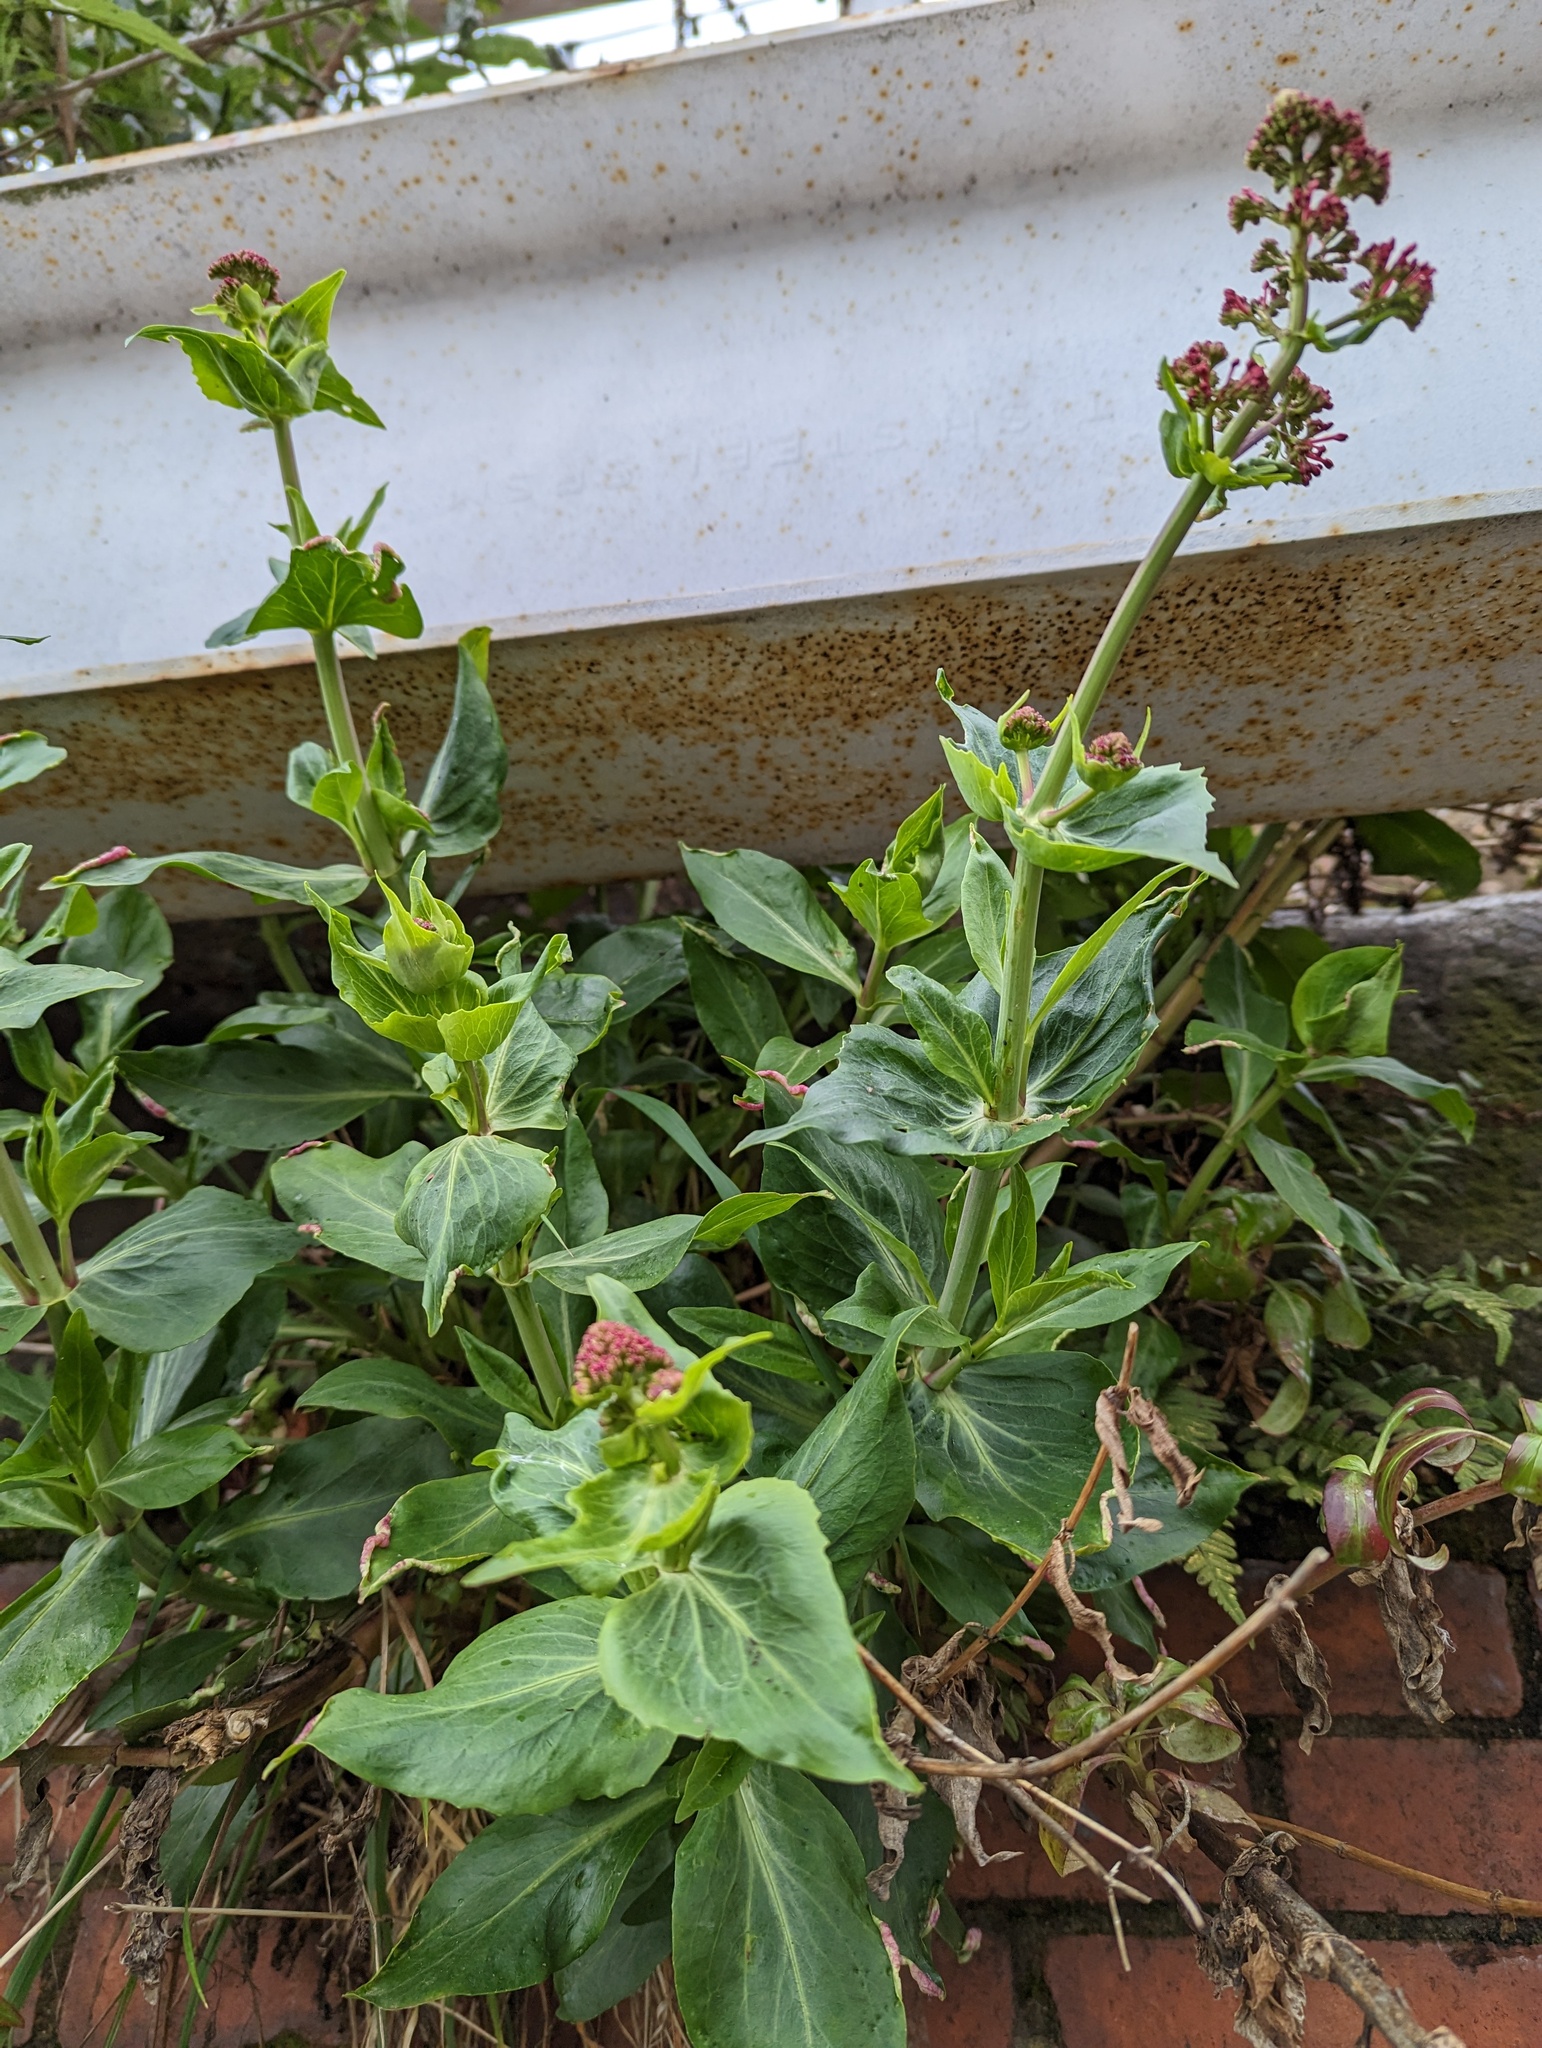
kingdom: Plantae
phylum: Tracheophyta
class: Magnoliopsida
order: Dipsacales
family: Caprifoliaceae
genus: Centranthus
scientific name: Centranthus ruber
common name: Red valerian
